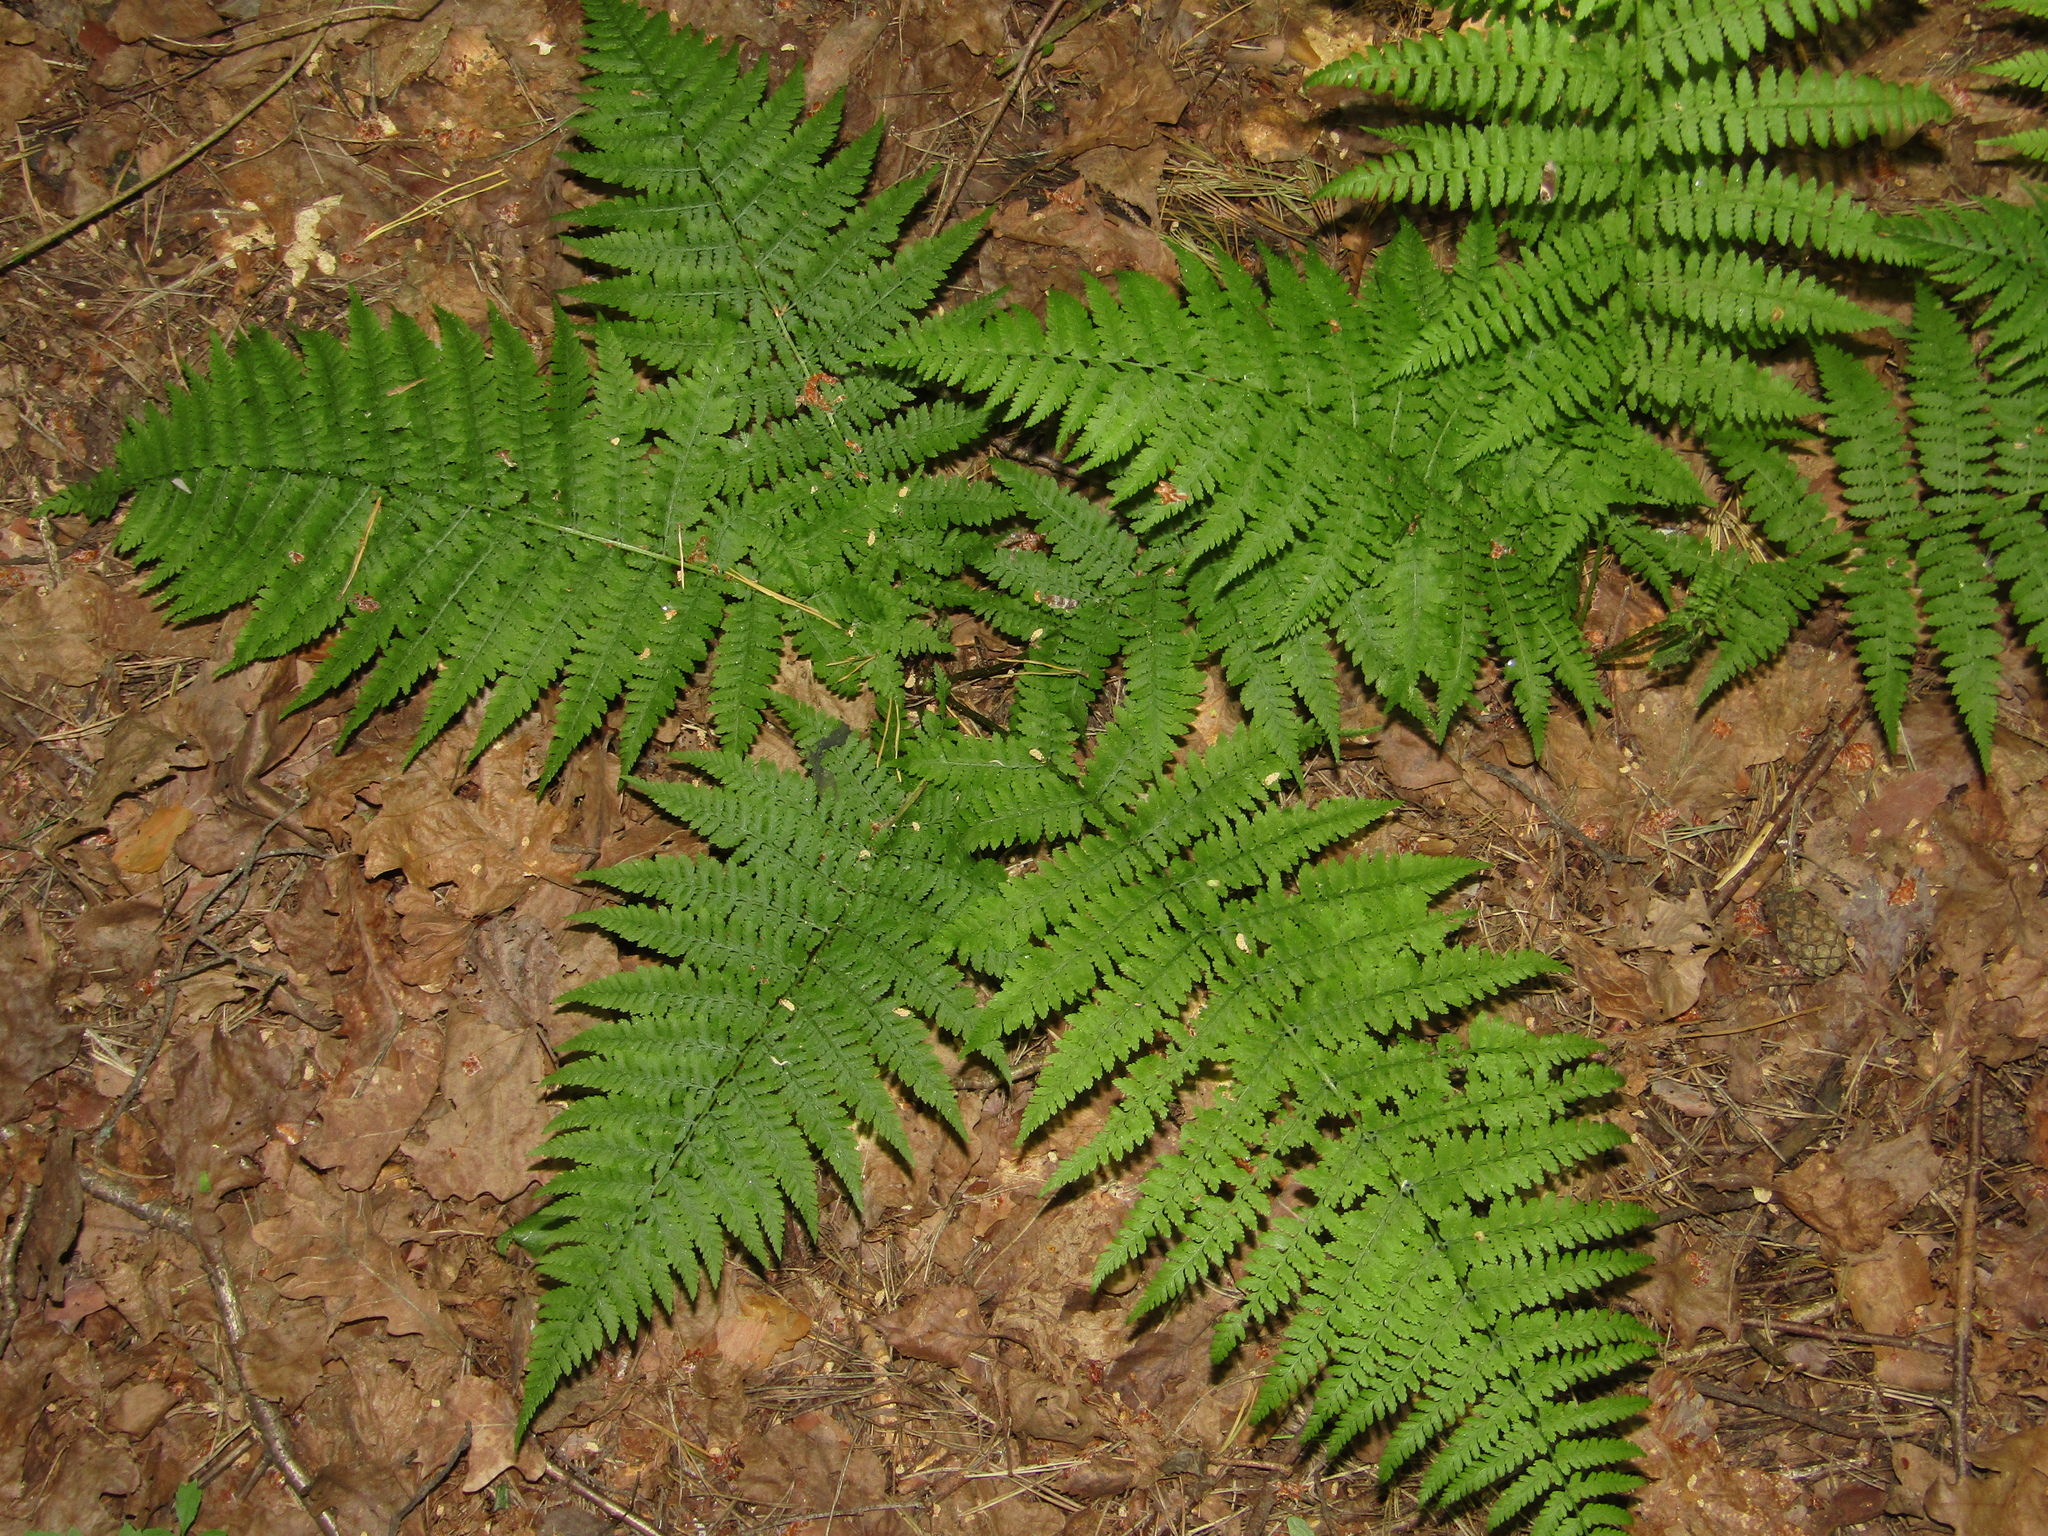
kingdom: Plantae
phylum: Tracheophyta
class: Polypodiopsida
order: Polypodiales
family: Dryopteridaceae
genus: Dryopteris
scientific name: Dryopteris filix-mas
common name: Male fern
